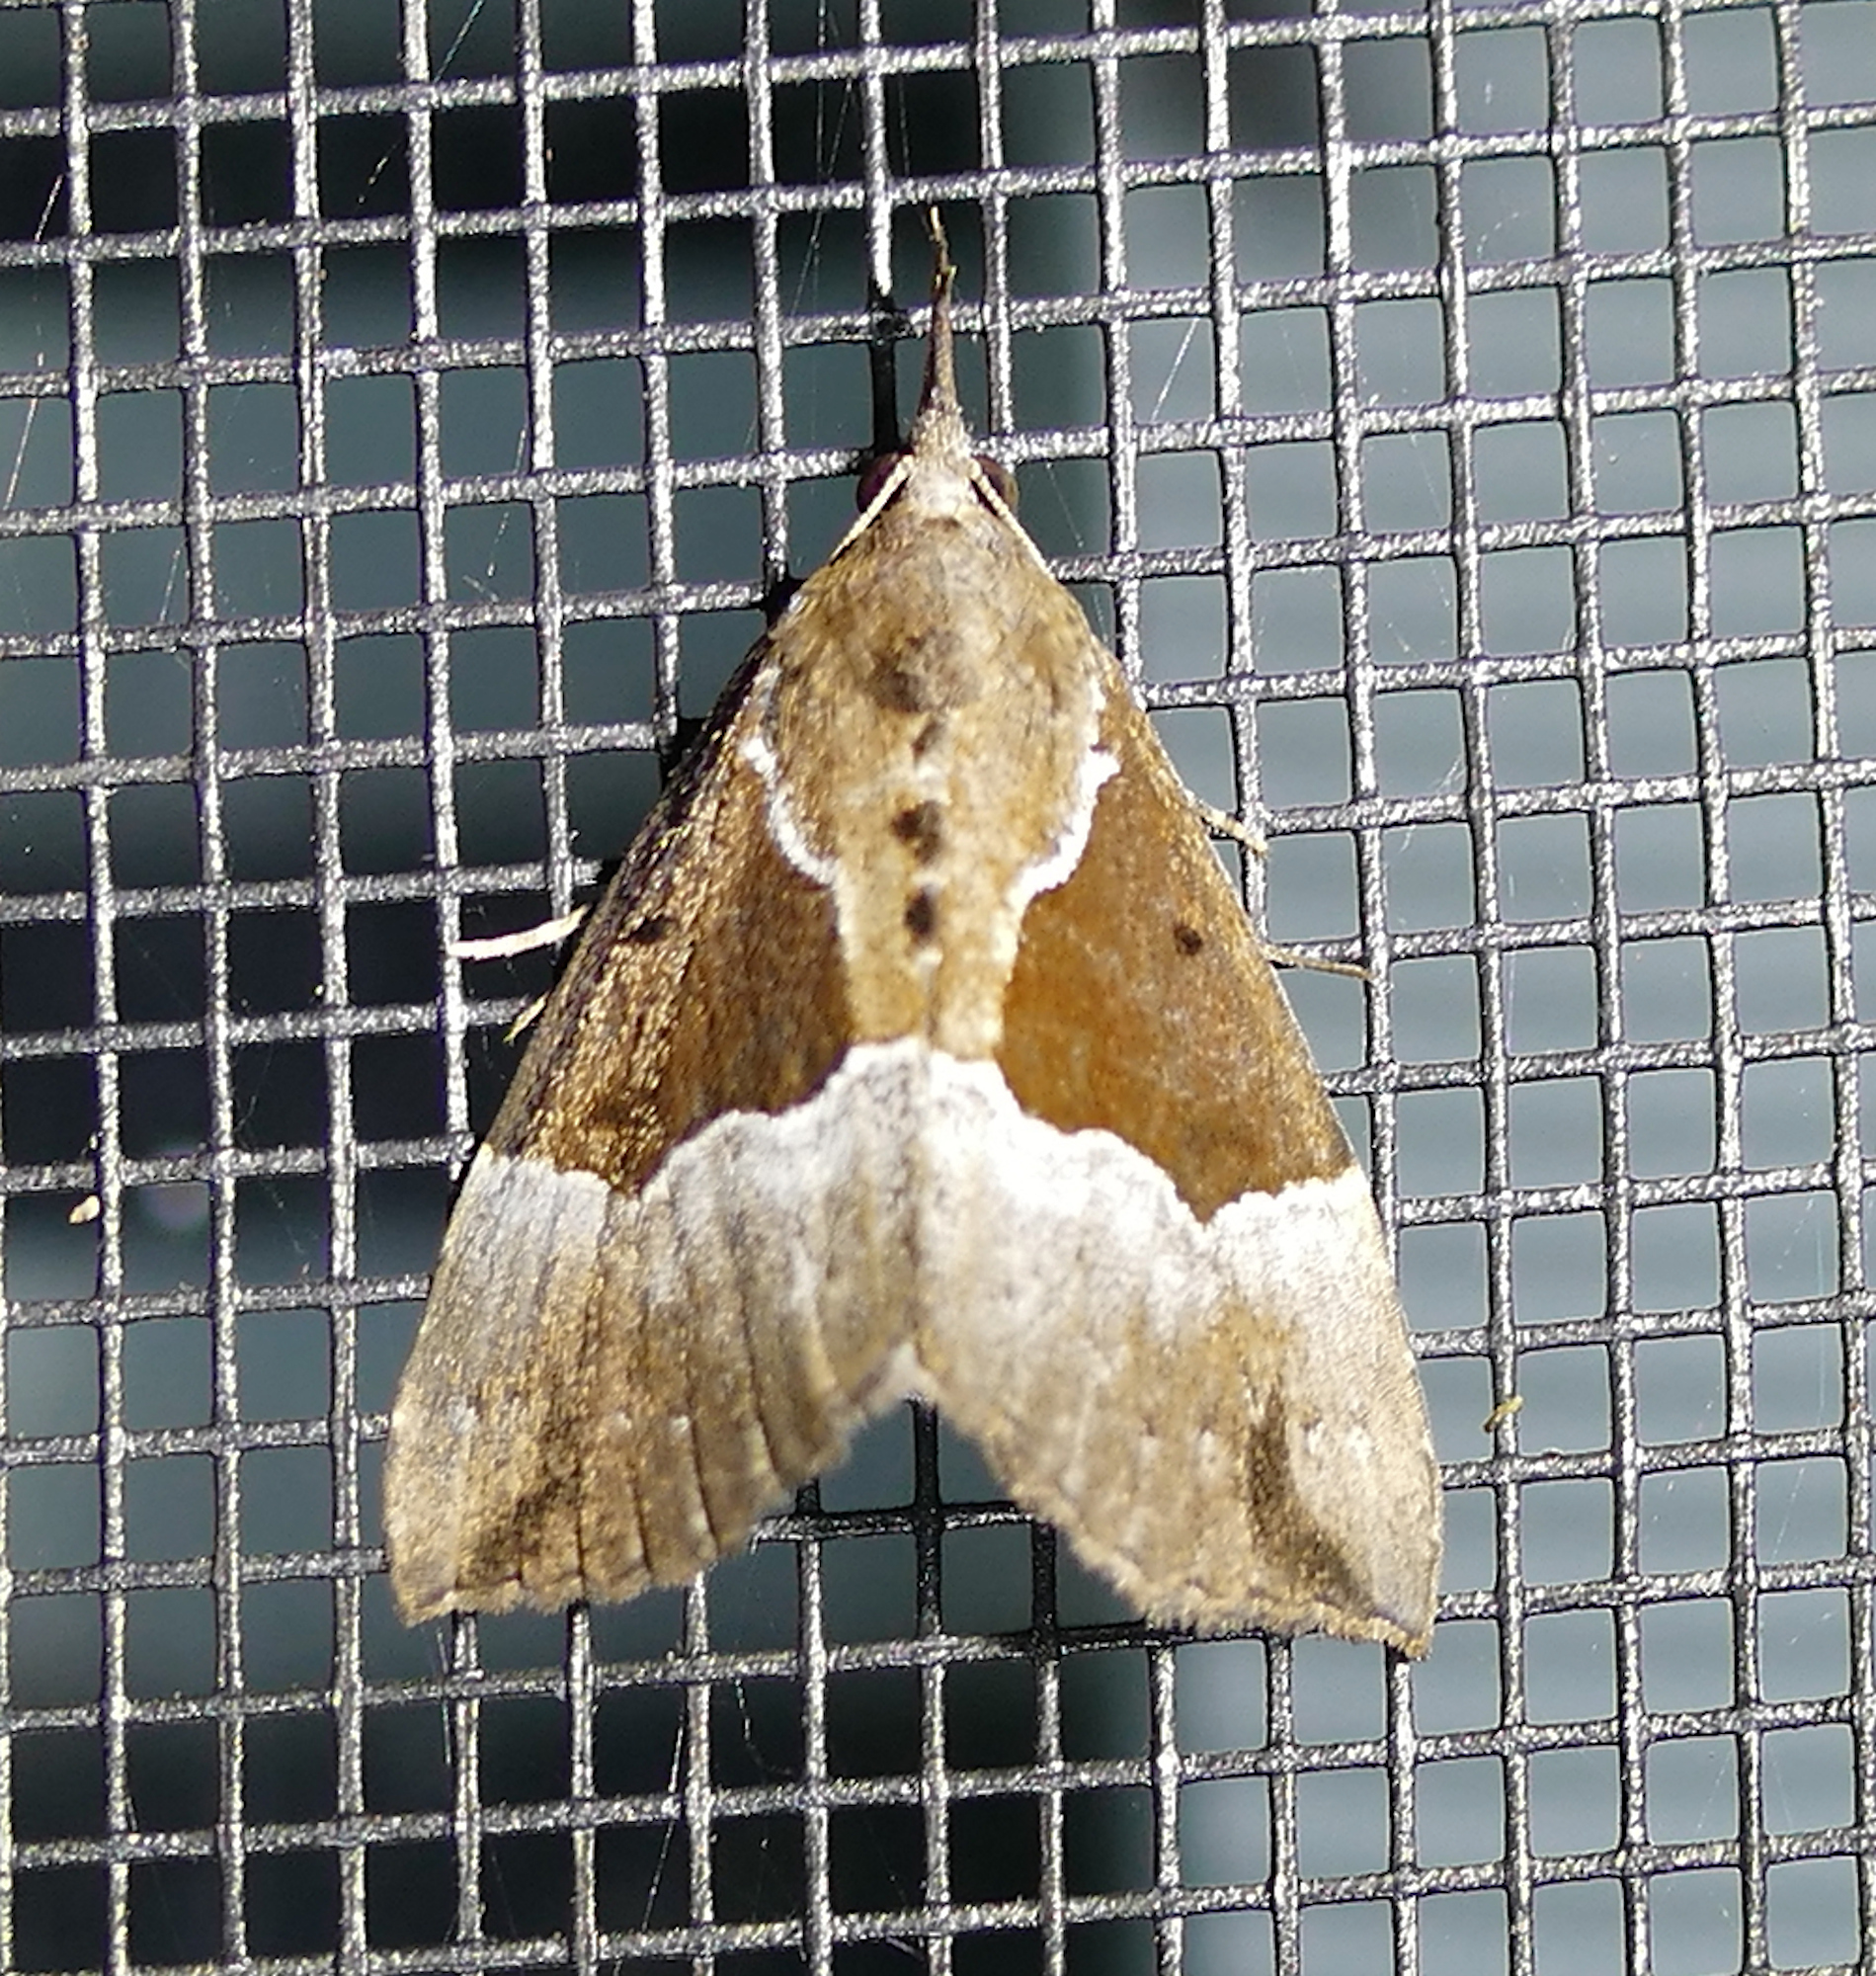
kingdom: Animalia
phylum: Arthropoda
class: Insecta
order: Lepidoptera
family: Erebidae
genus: Hypena
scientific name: Hypena bijugalis
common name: Dimorphic bomolocha moth
